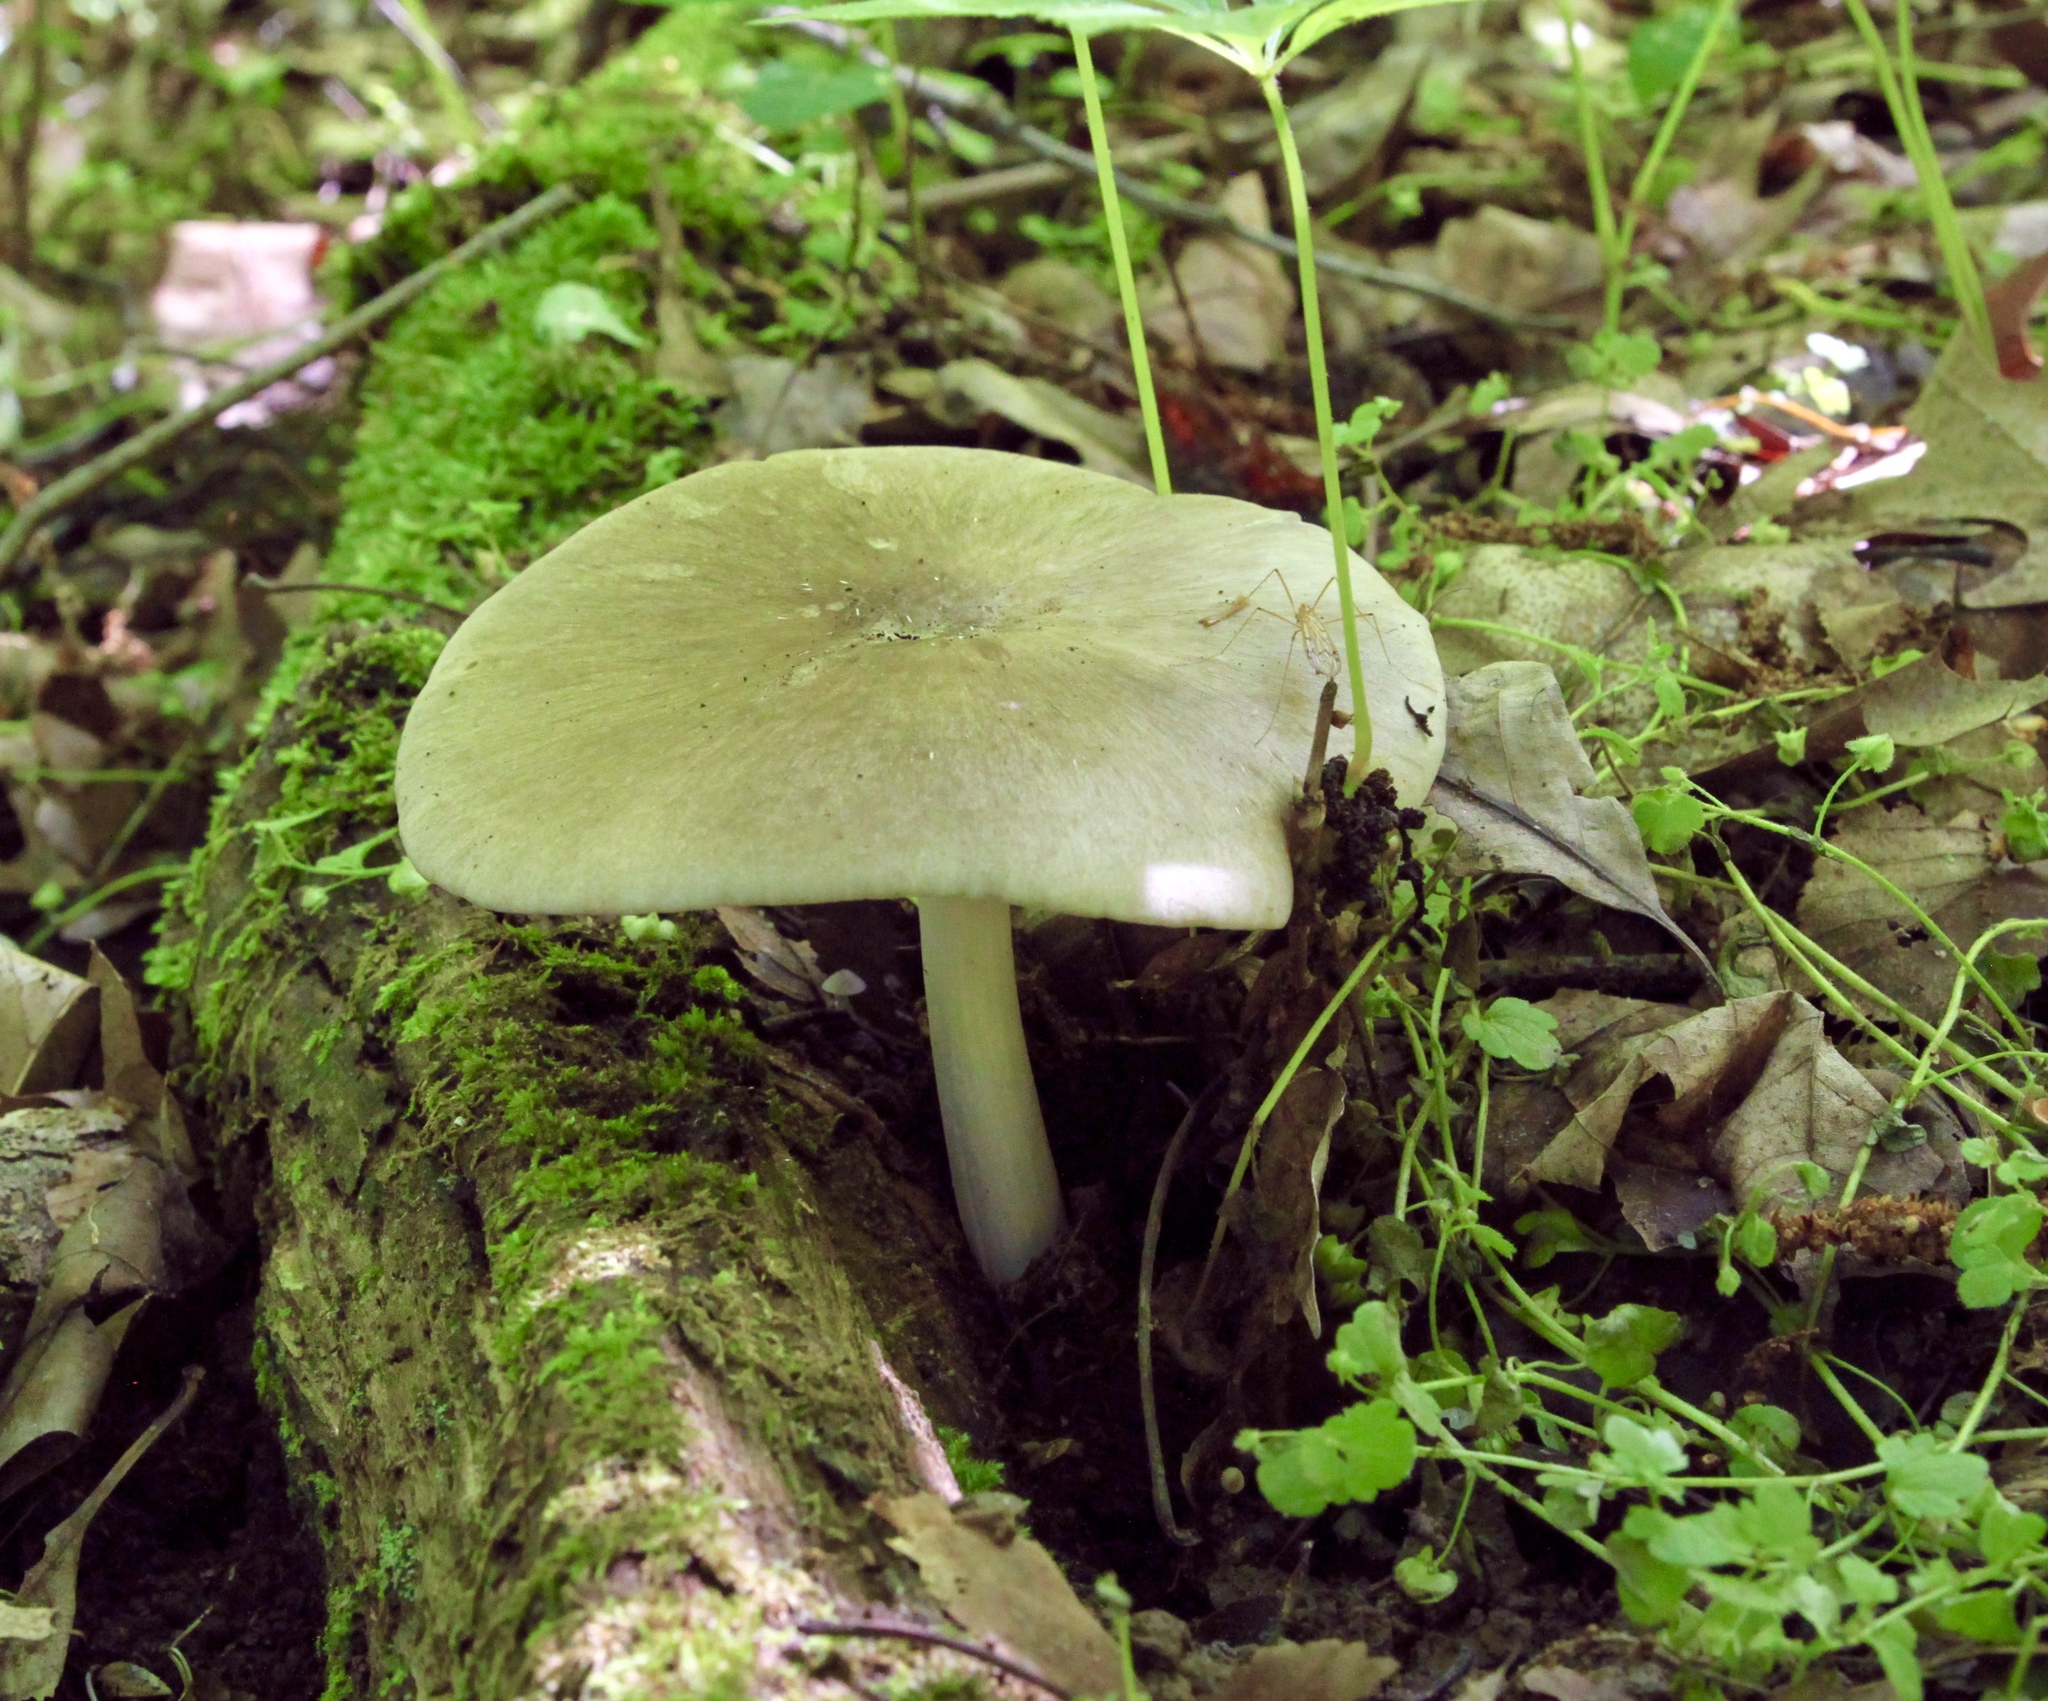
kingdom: Fungi
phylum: Basidiomycota
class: Agaricomycetes
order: Agaricales
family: Tricholomataceae
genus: Megacollybia
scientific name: Megacollybia rodmanii
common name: Eastern american platterful mushroom
